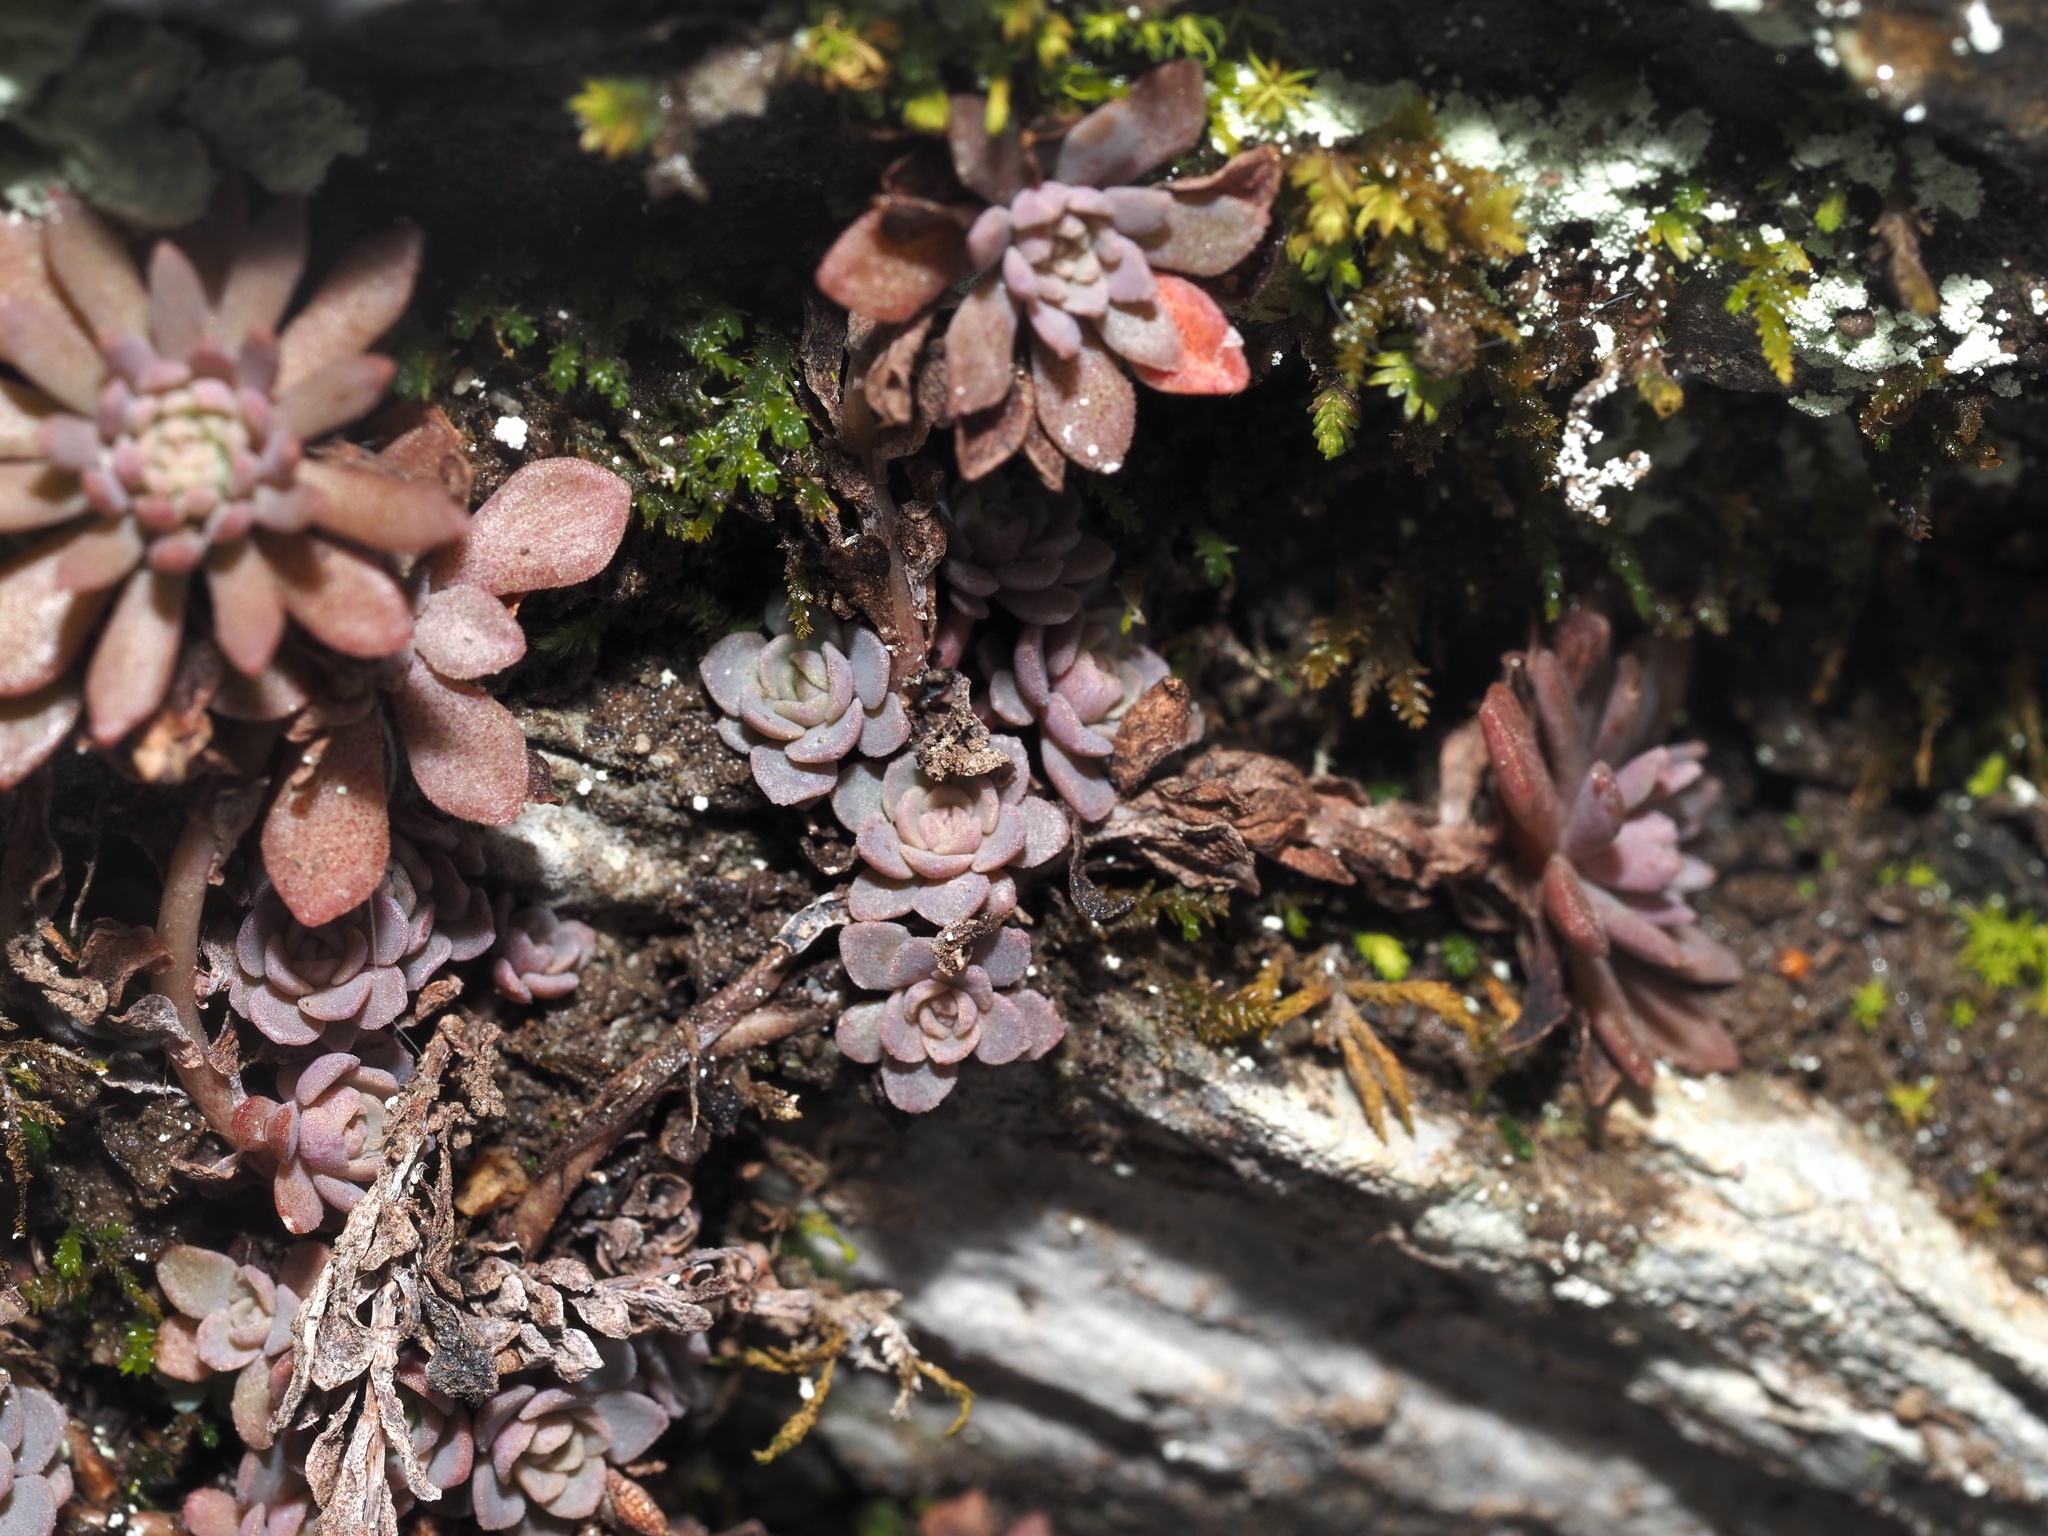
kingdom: Plantae
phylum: Tracheophyta
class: Magnoliopsida
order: Saxifragales
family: Crassulaceae
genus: Sedum
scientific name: Sedum glaucophyllum
